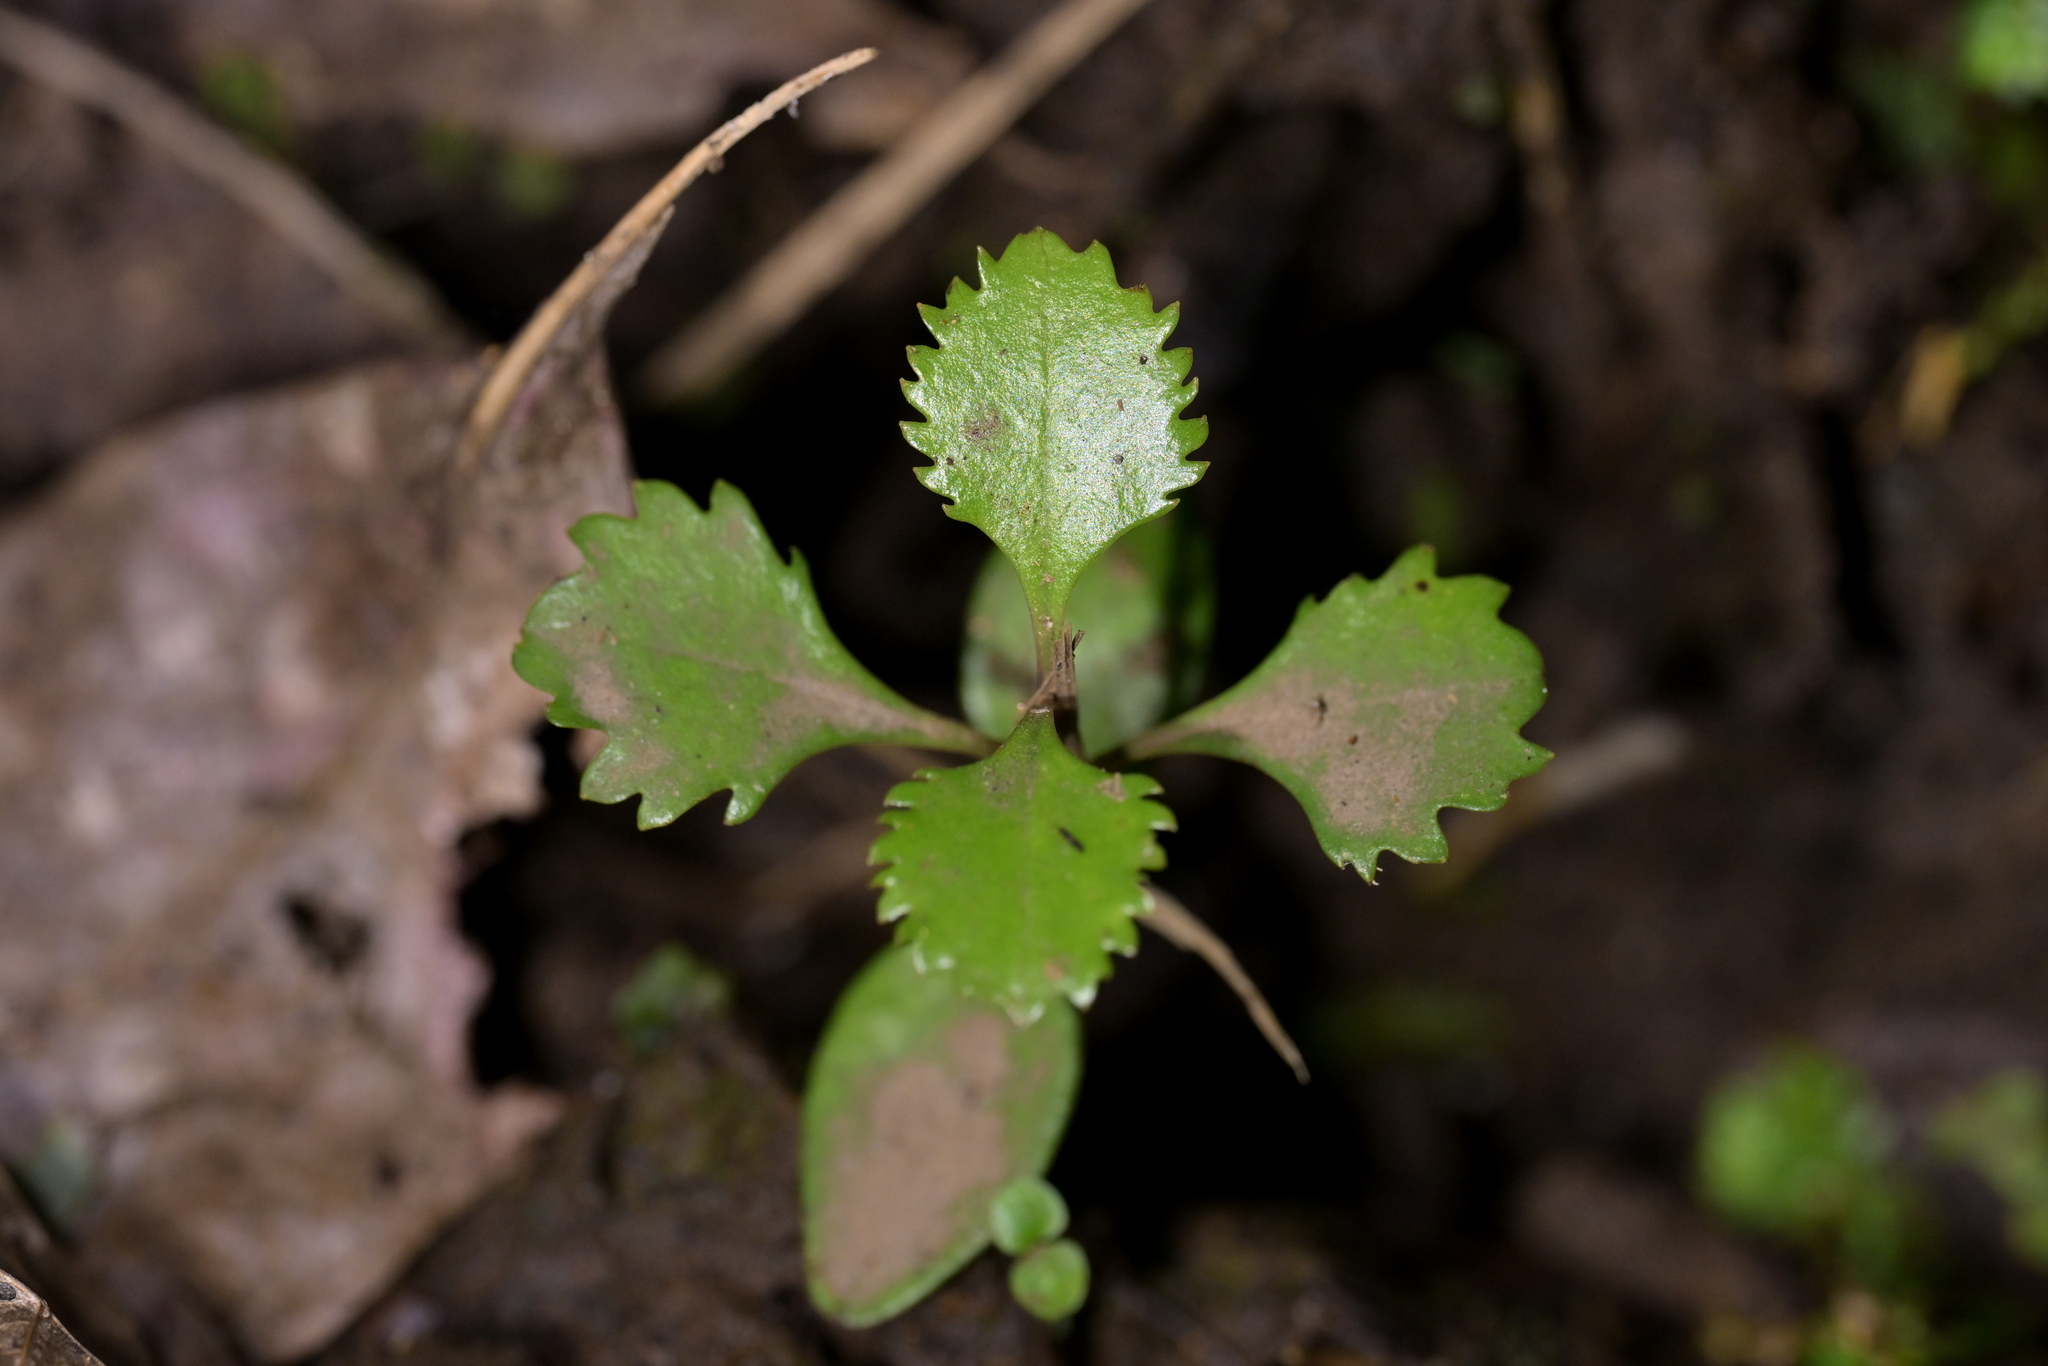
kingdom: Plantae
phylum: Tracheophyta
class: Magnoliopsida
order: Laurales
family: Atherospermataceae
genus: Laurelia
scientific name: Laurelia novae-zelandiae
